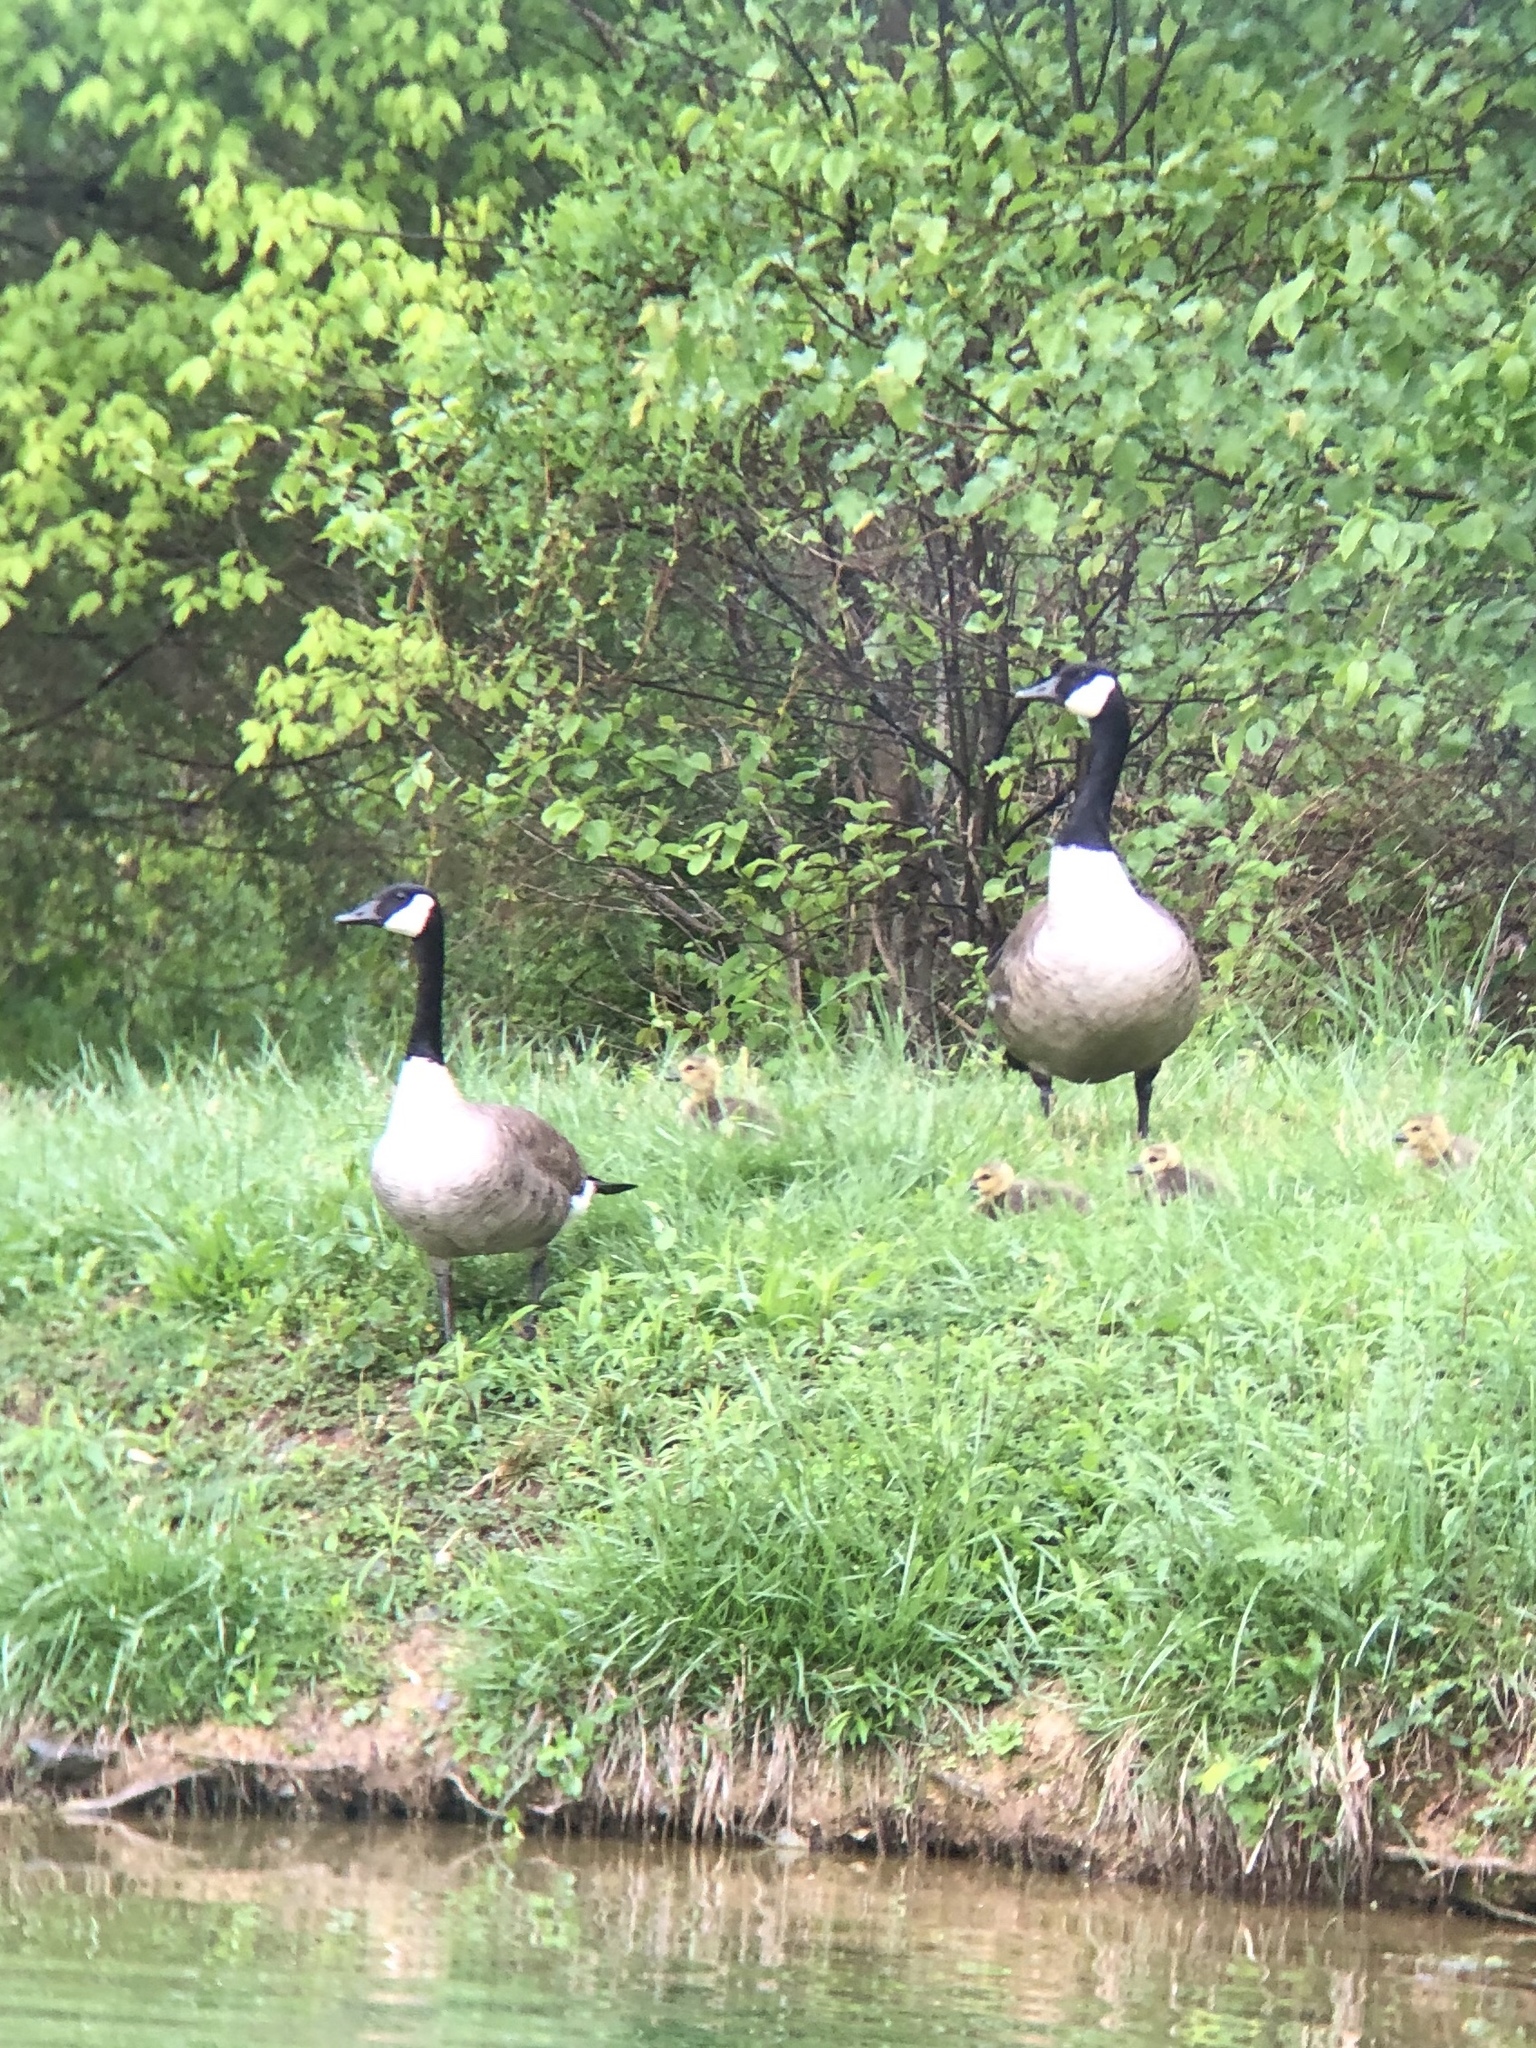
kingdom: Animalia
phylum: Chordata
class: Aves
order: Anseriformes
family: Anatidae
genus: Branta
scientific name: Branta canadensis
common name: Canada goose
